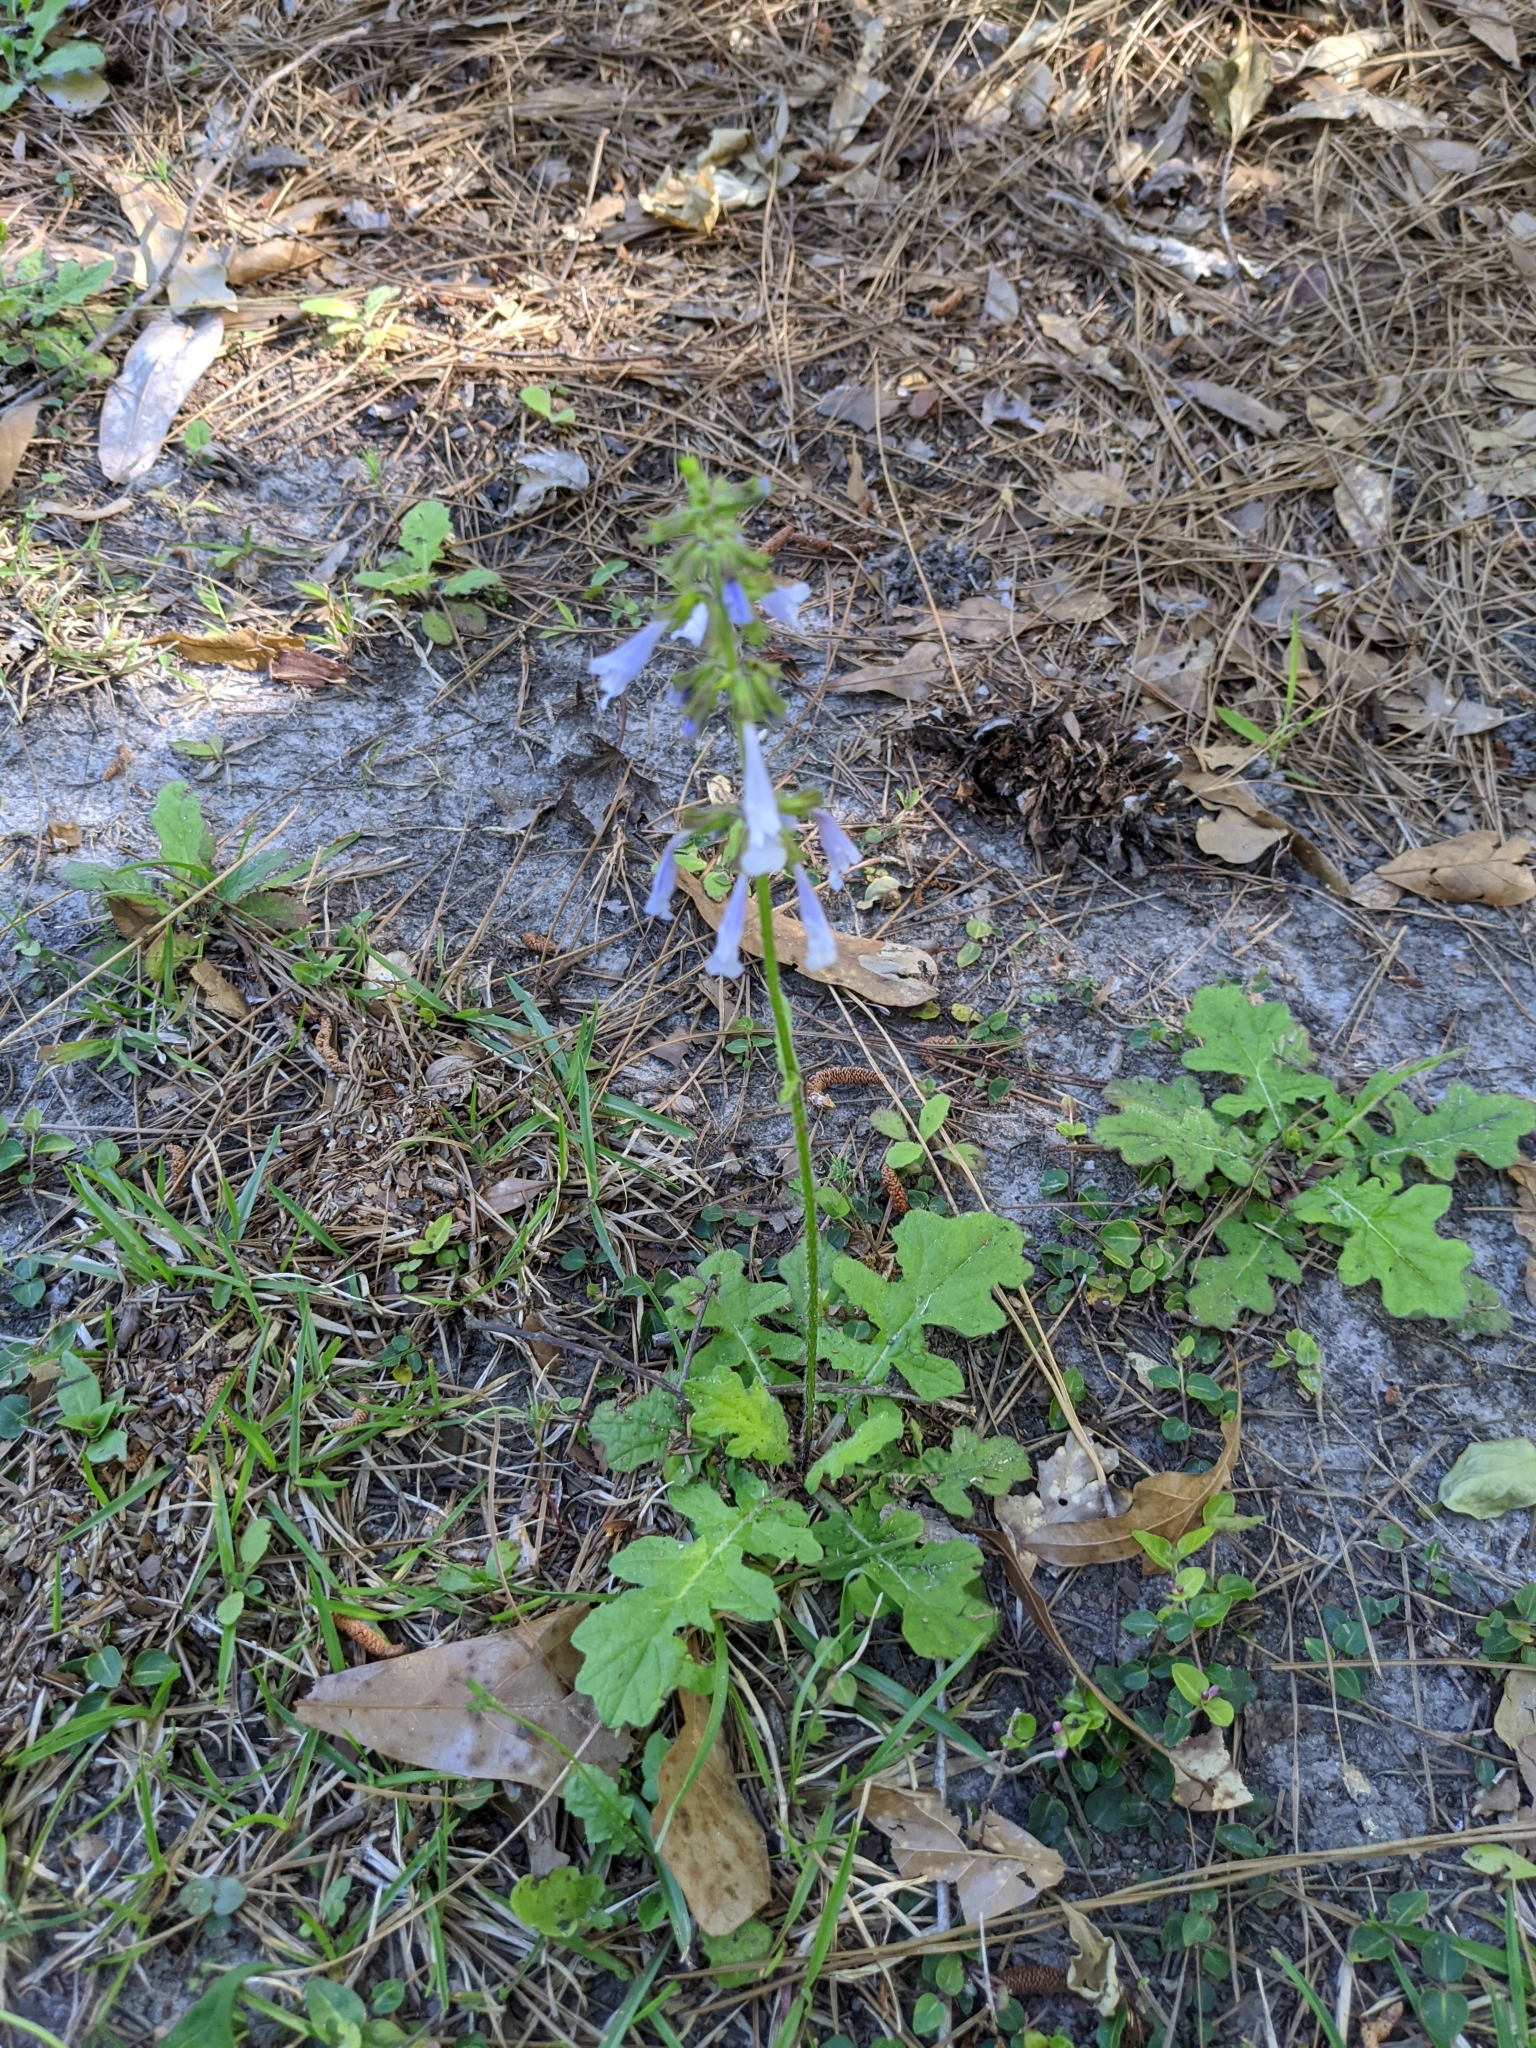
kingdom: Plantae
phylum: Tracheophyta
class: Magnoliopsida
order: Lamiales
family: Lamiaceae
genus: Salvia
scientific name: Salvia lyrata
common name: Cancerweed
